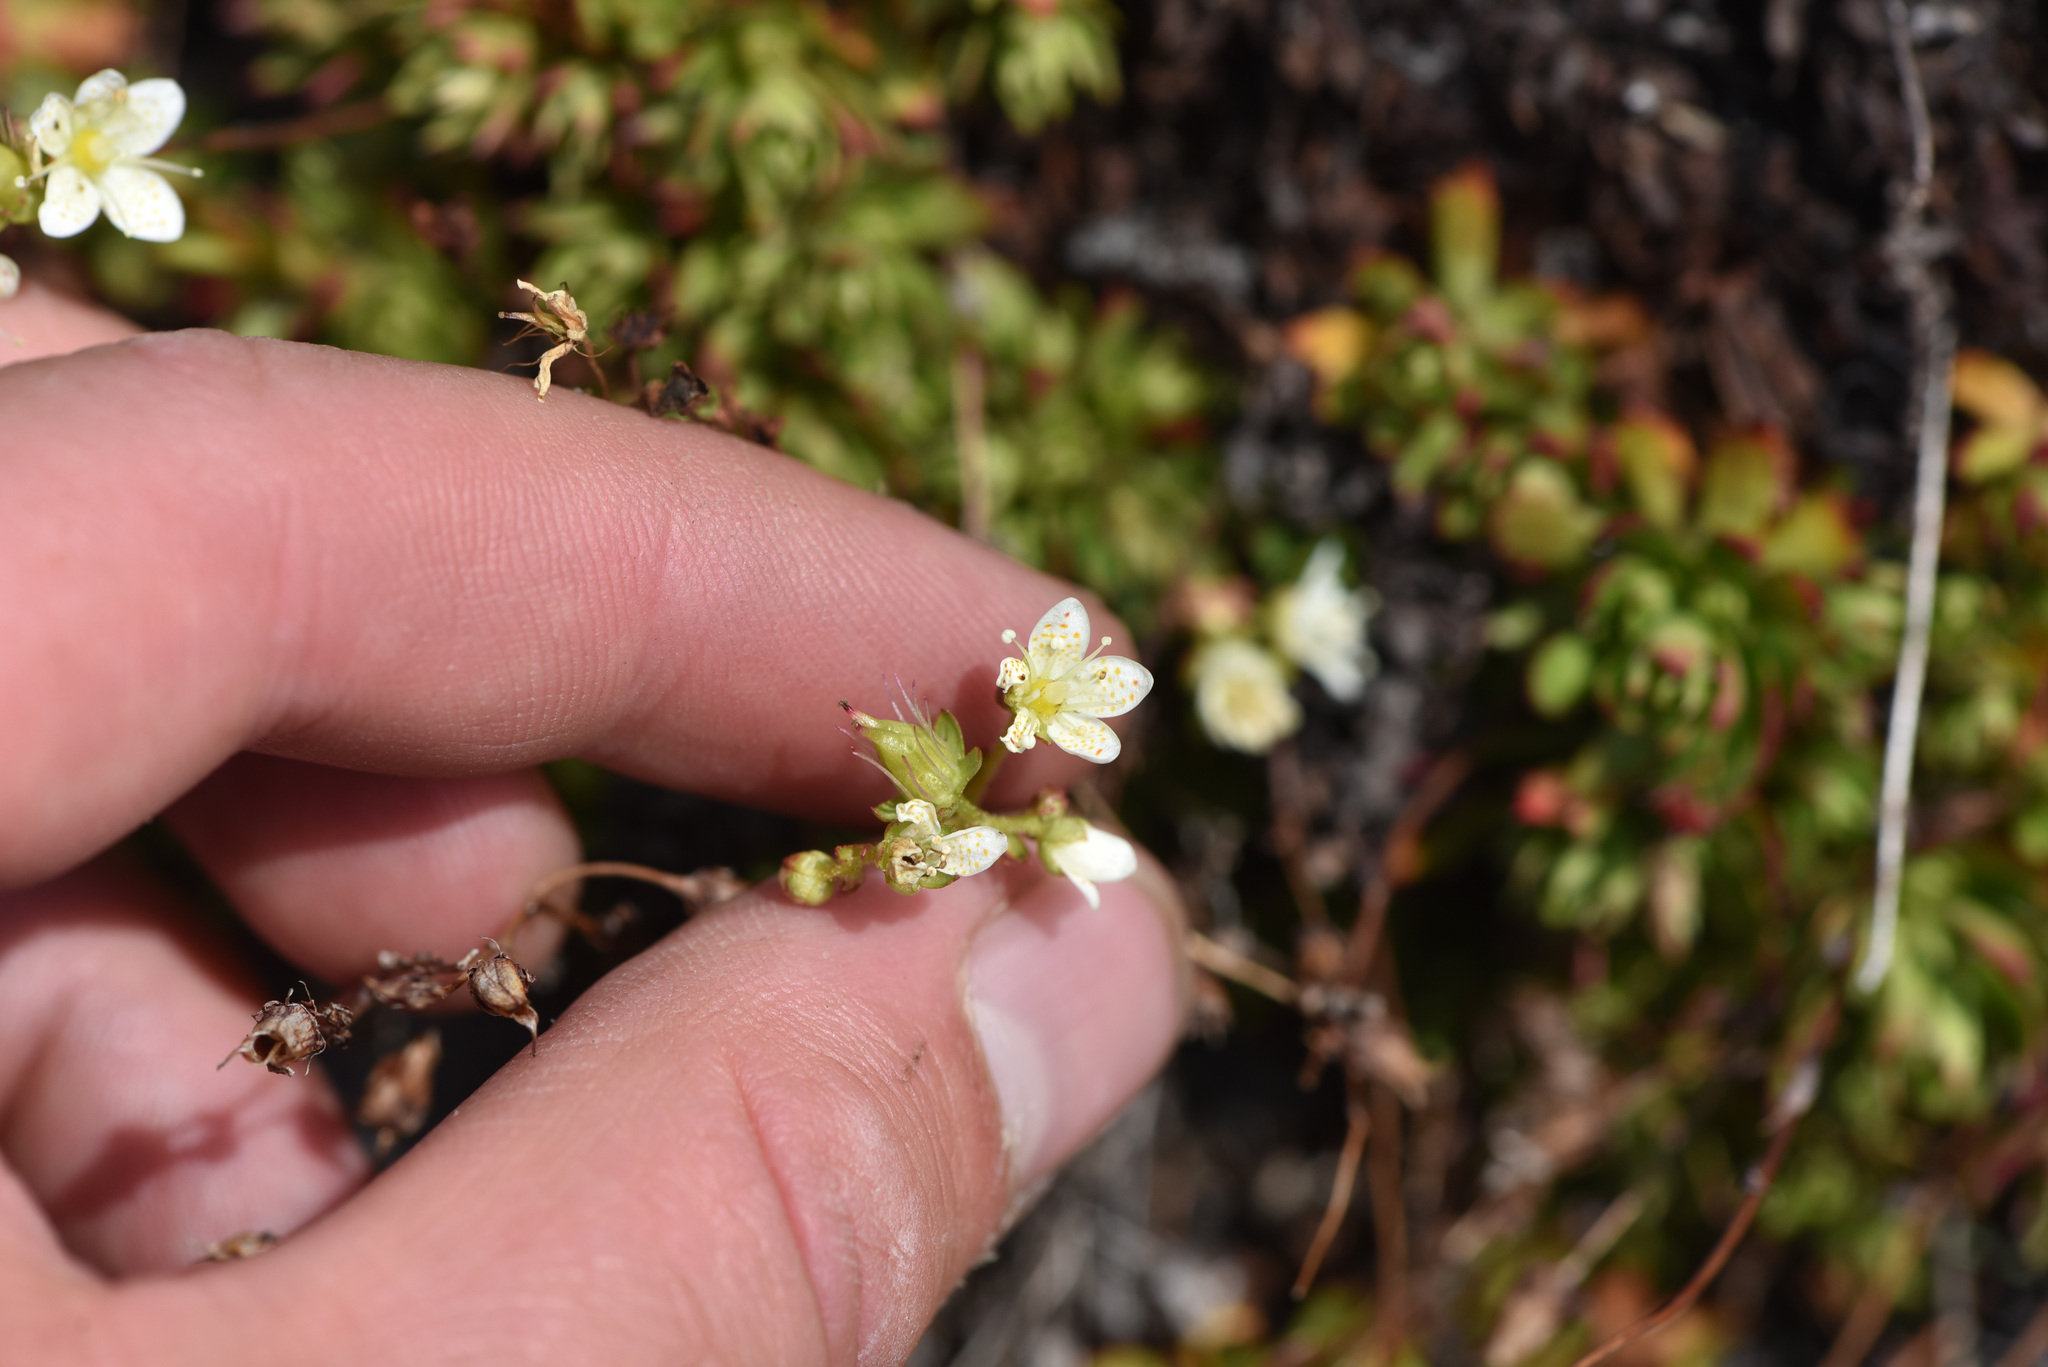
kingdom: Plantae
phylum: Tracheophyta
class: Magnoliopsida
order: Saxifragales
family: Saxifragaceae
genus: Saxifraga
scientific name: Saxifraga tricuspidata
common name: Prickly saxifrage
